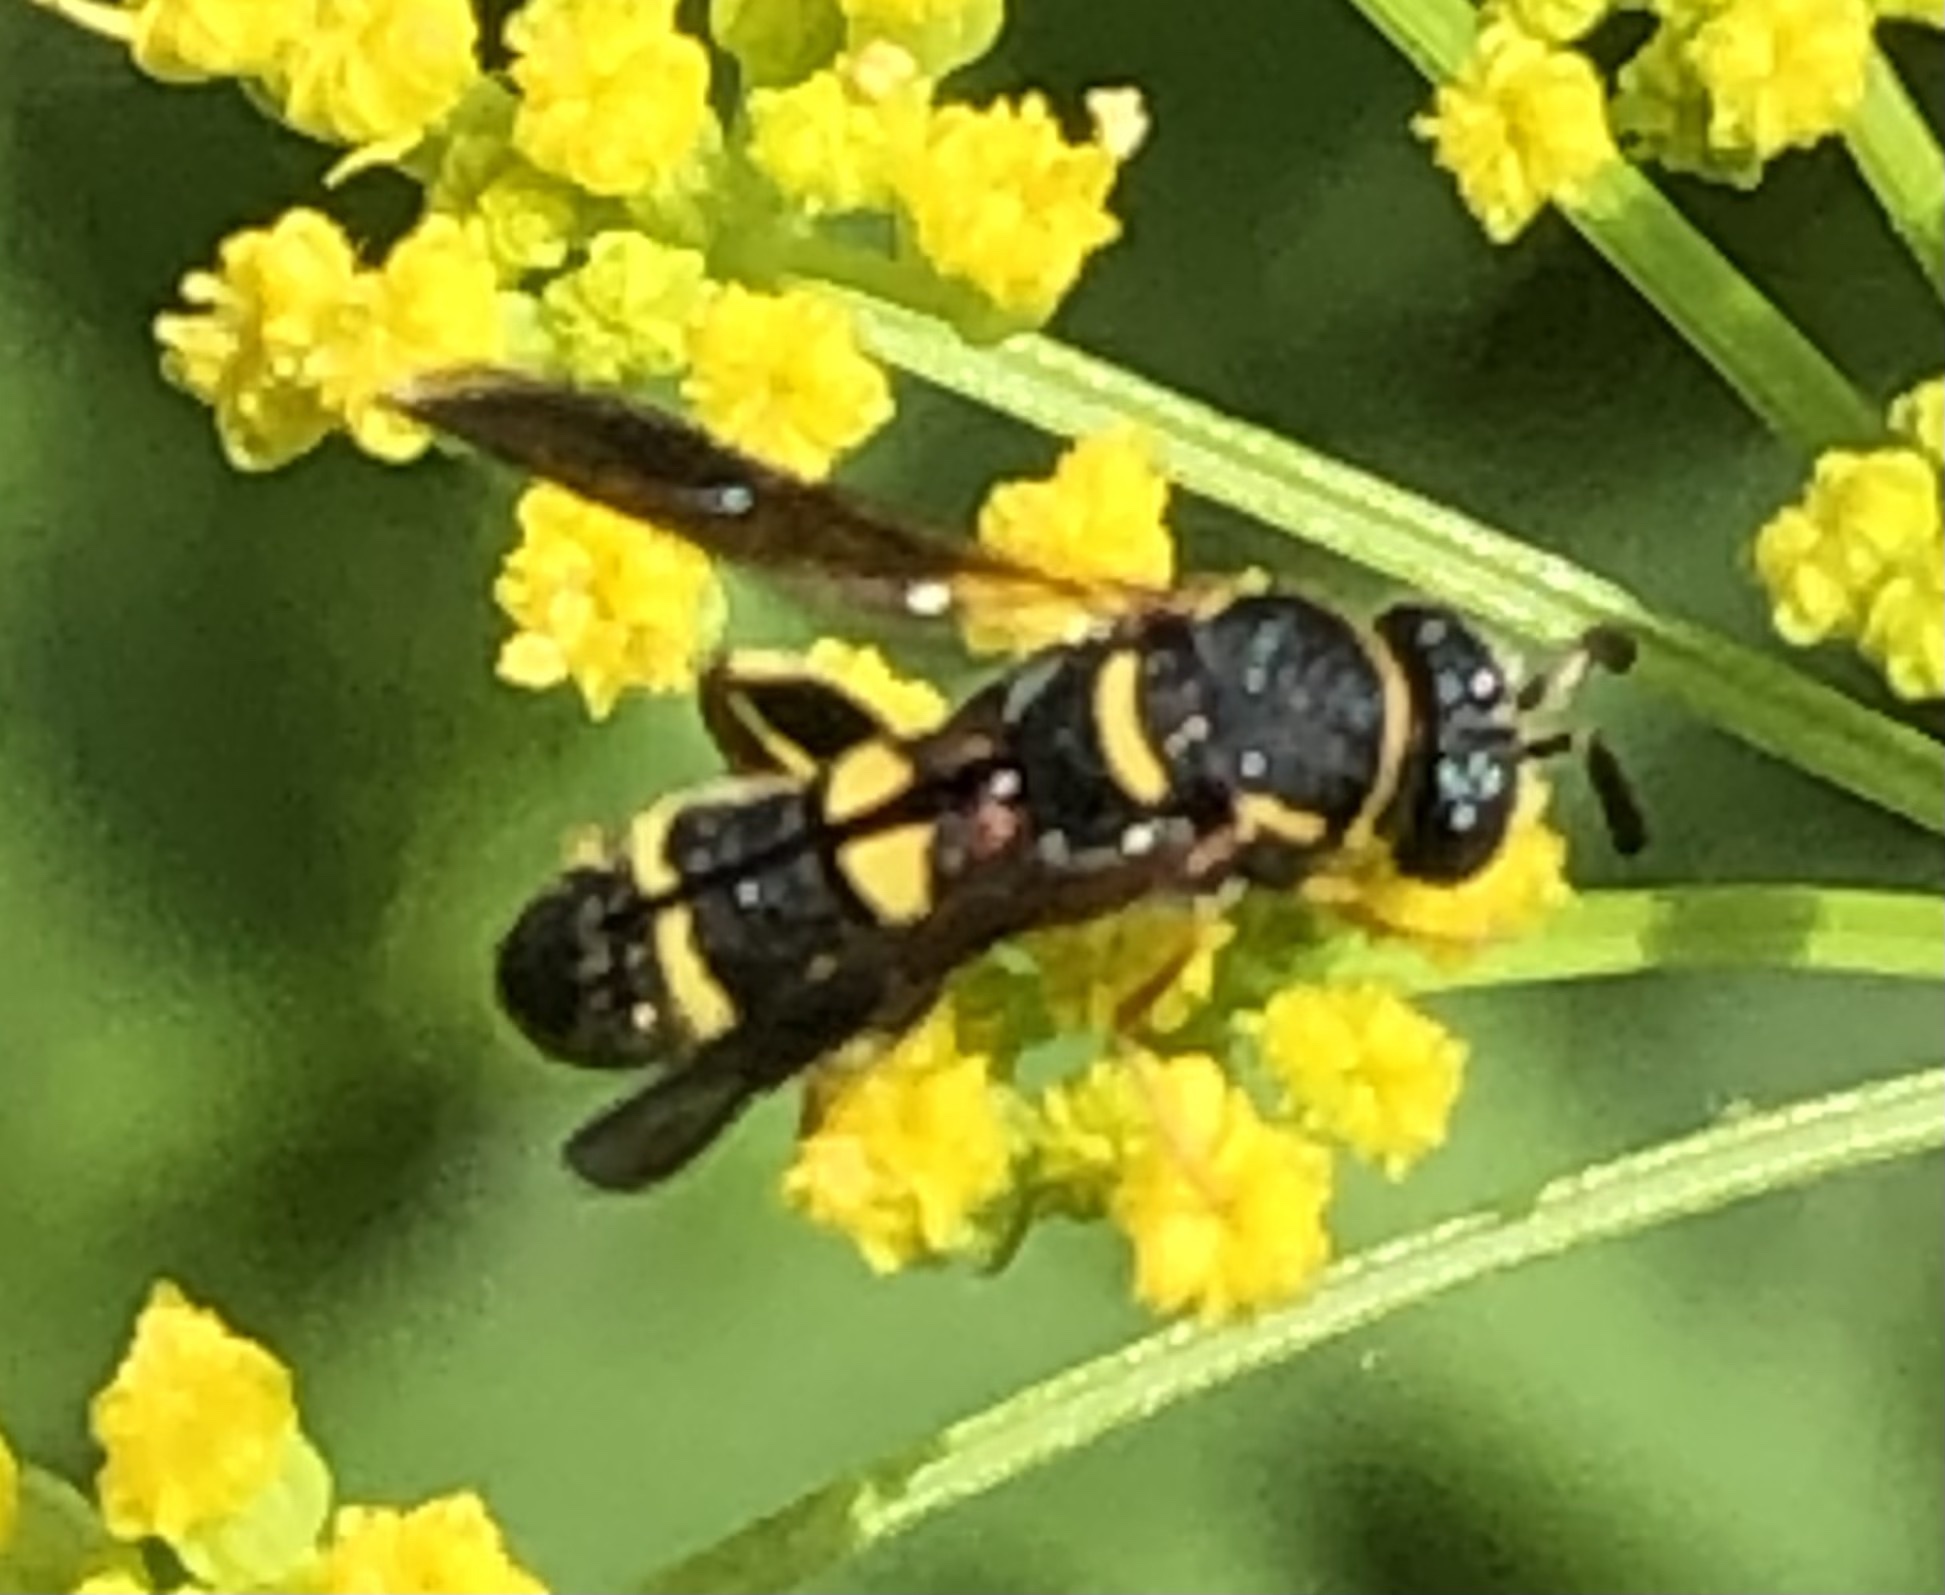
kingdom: Animalia
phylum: Arthropoda
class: Insecta
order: Hymenoptera
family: Leucospidae
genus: Leucospis
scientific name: Leucospis affinis
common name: Wasp
